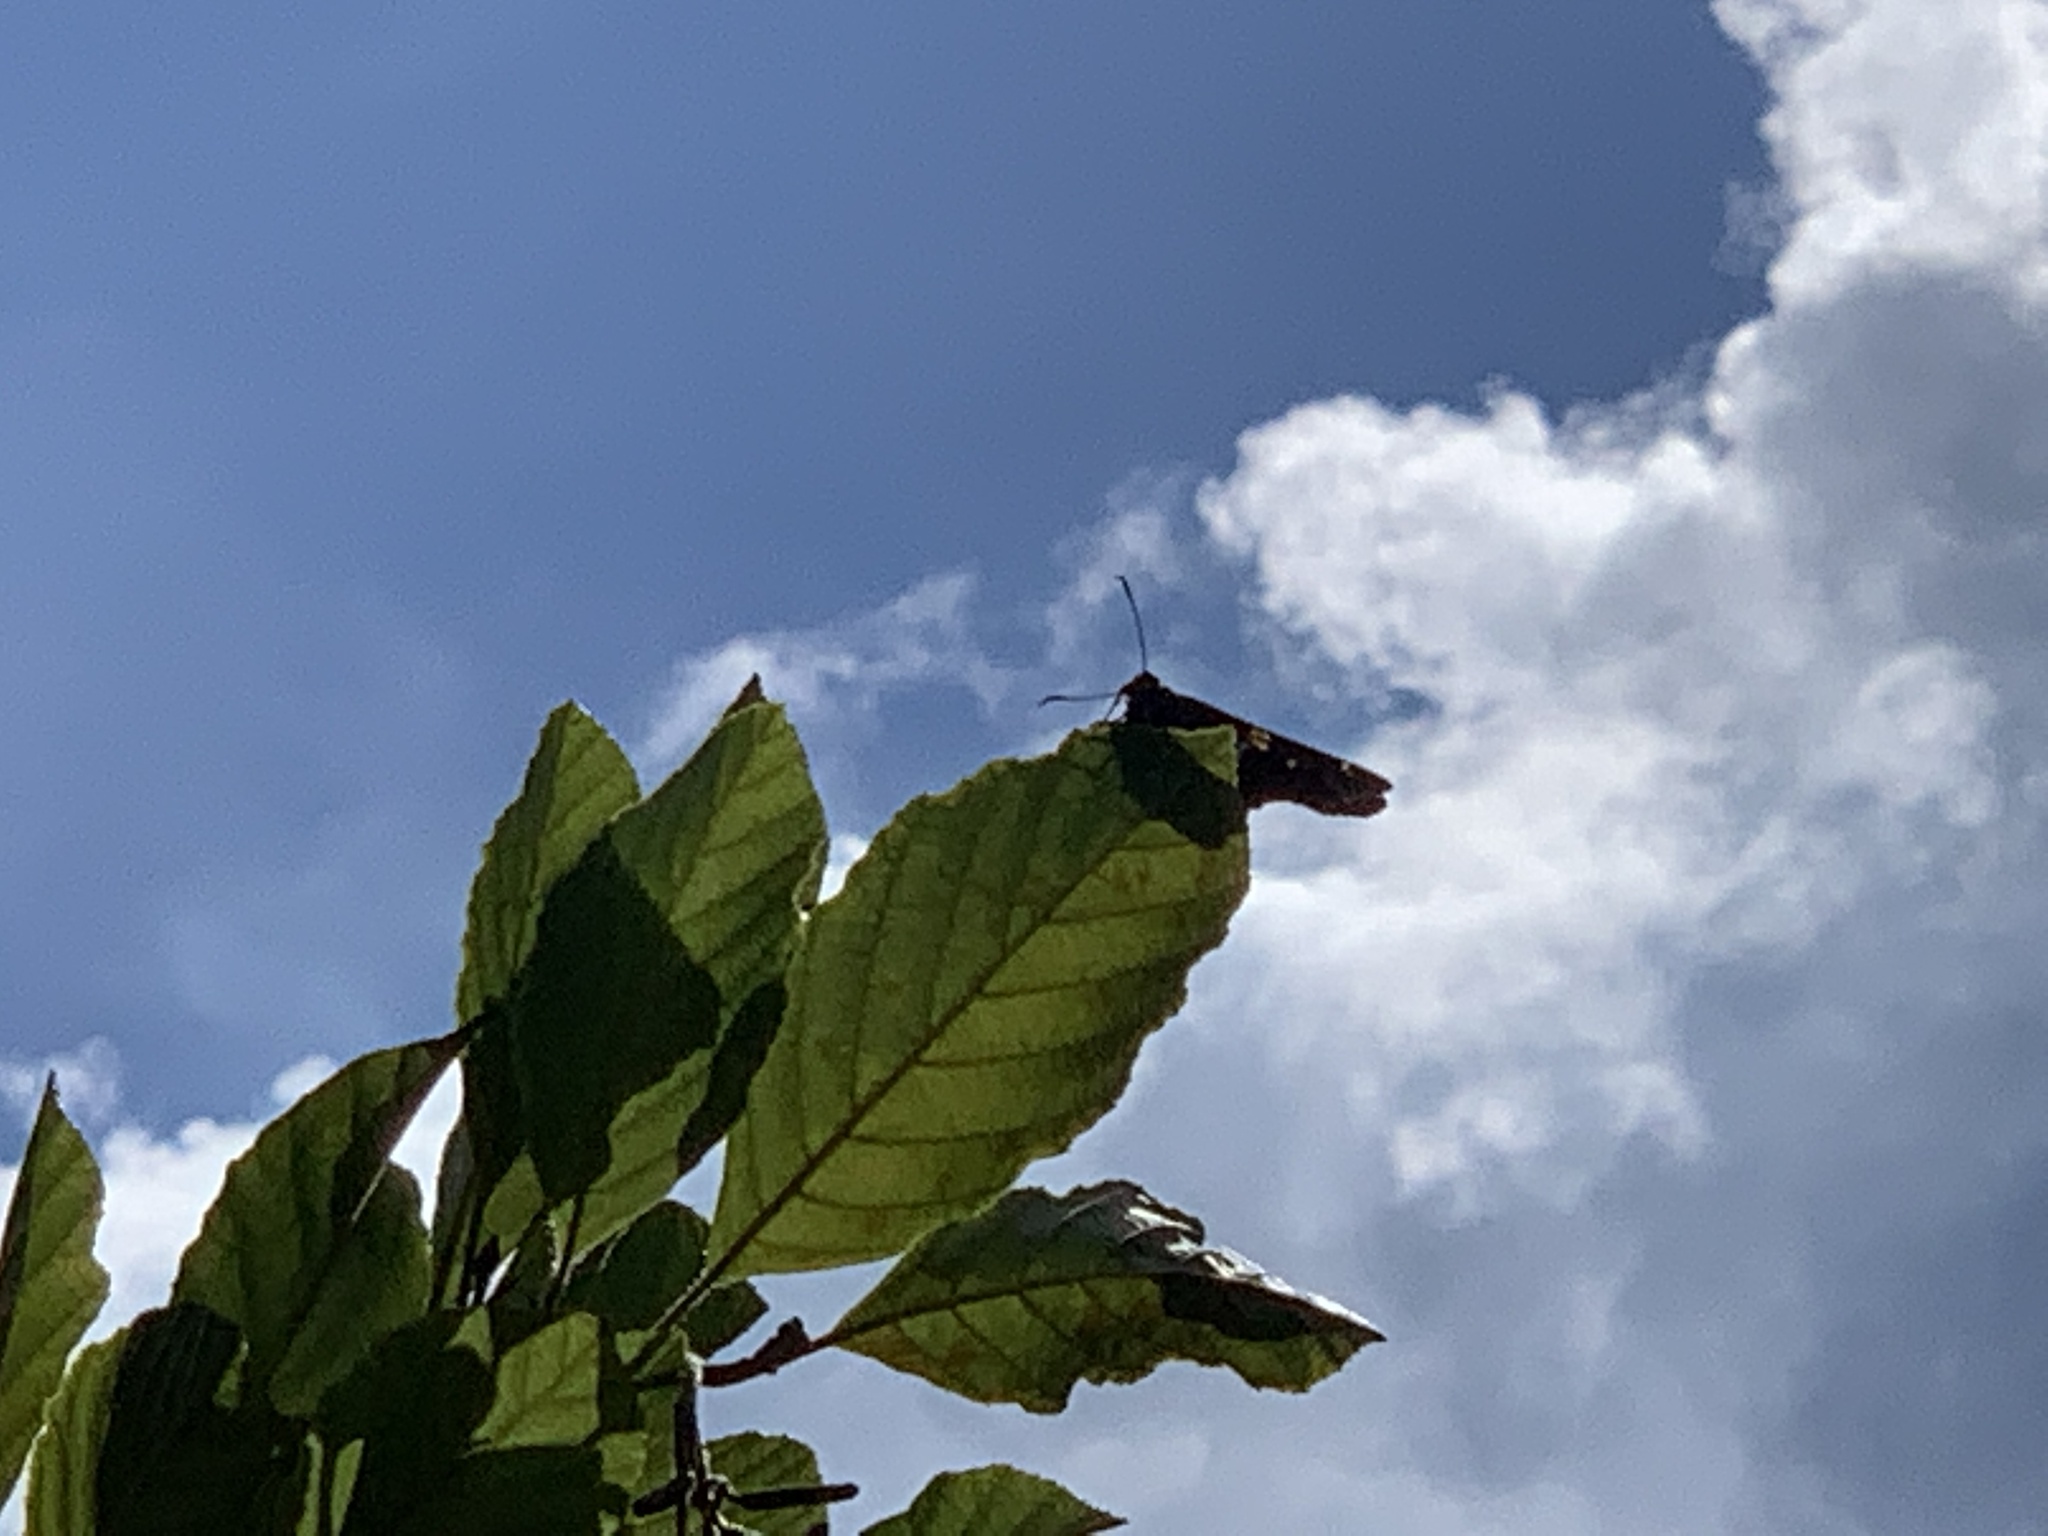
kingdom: Animalia
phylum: Arthropoda
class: Insecta
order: Lepidoptera
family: Hesperiidae
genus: Epargyreus
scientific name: Epargyreus clarus
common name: Silver-spotted skipper
